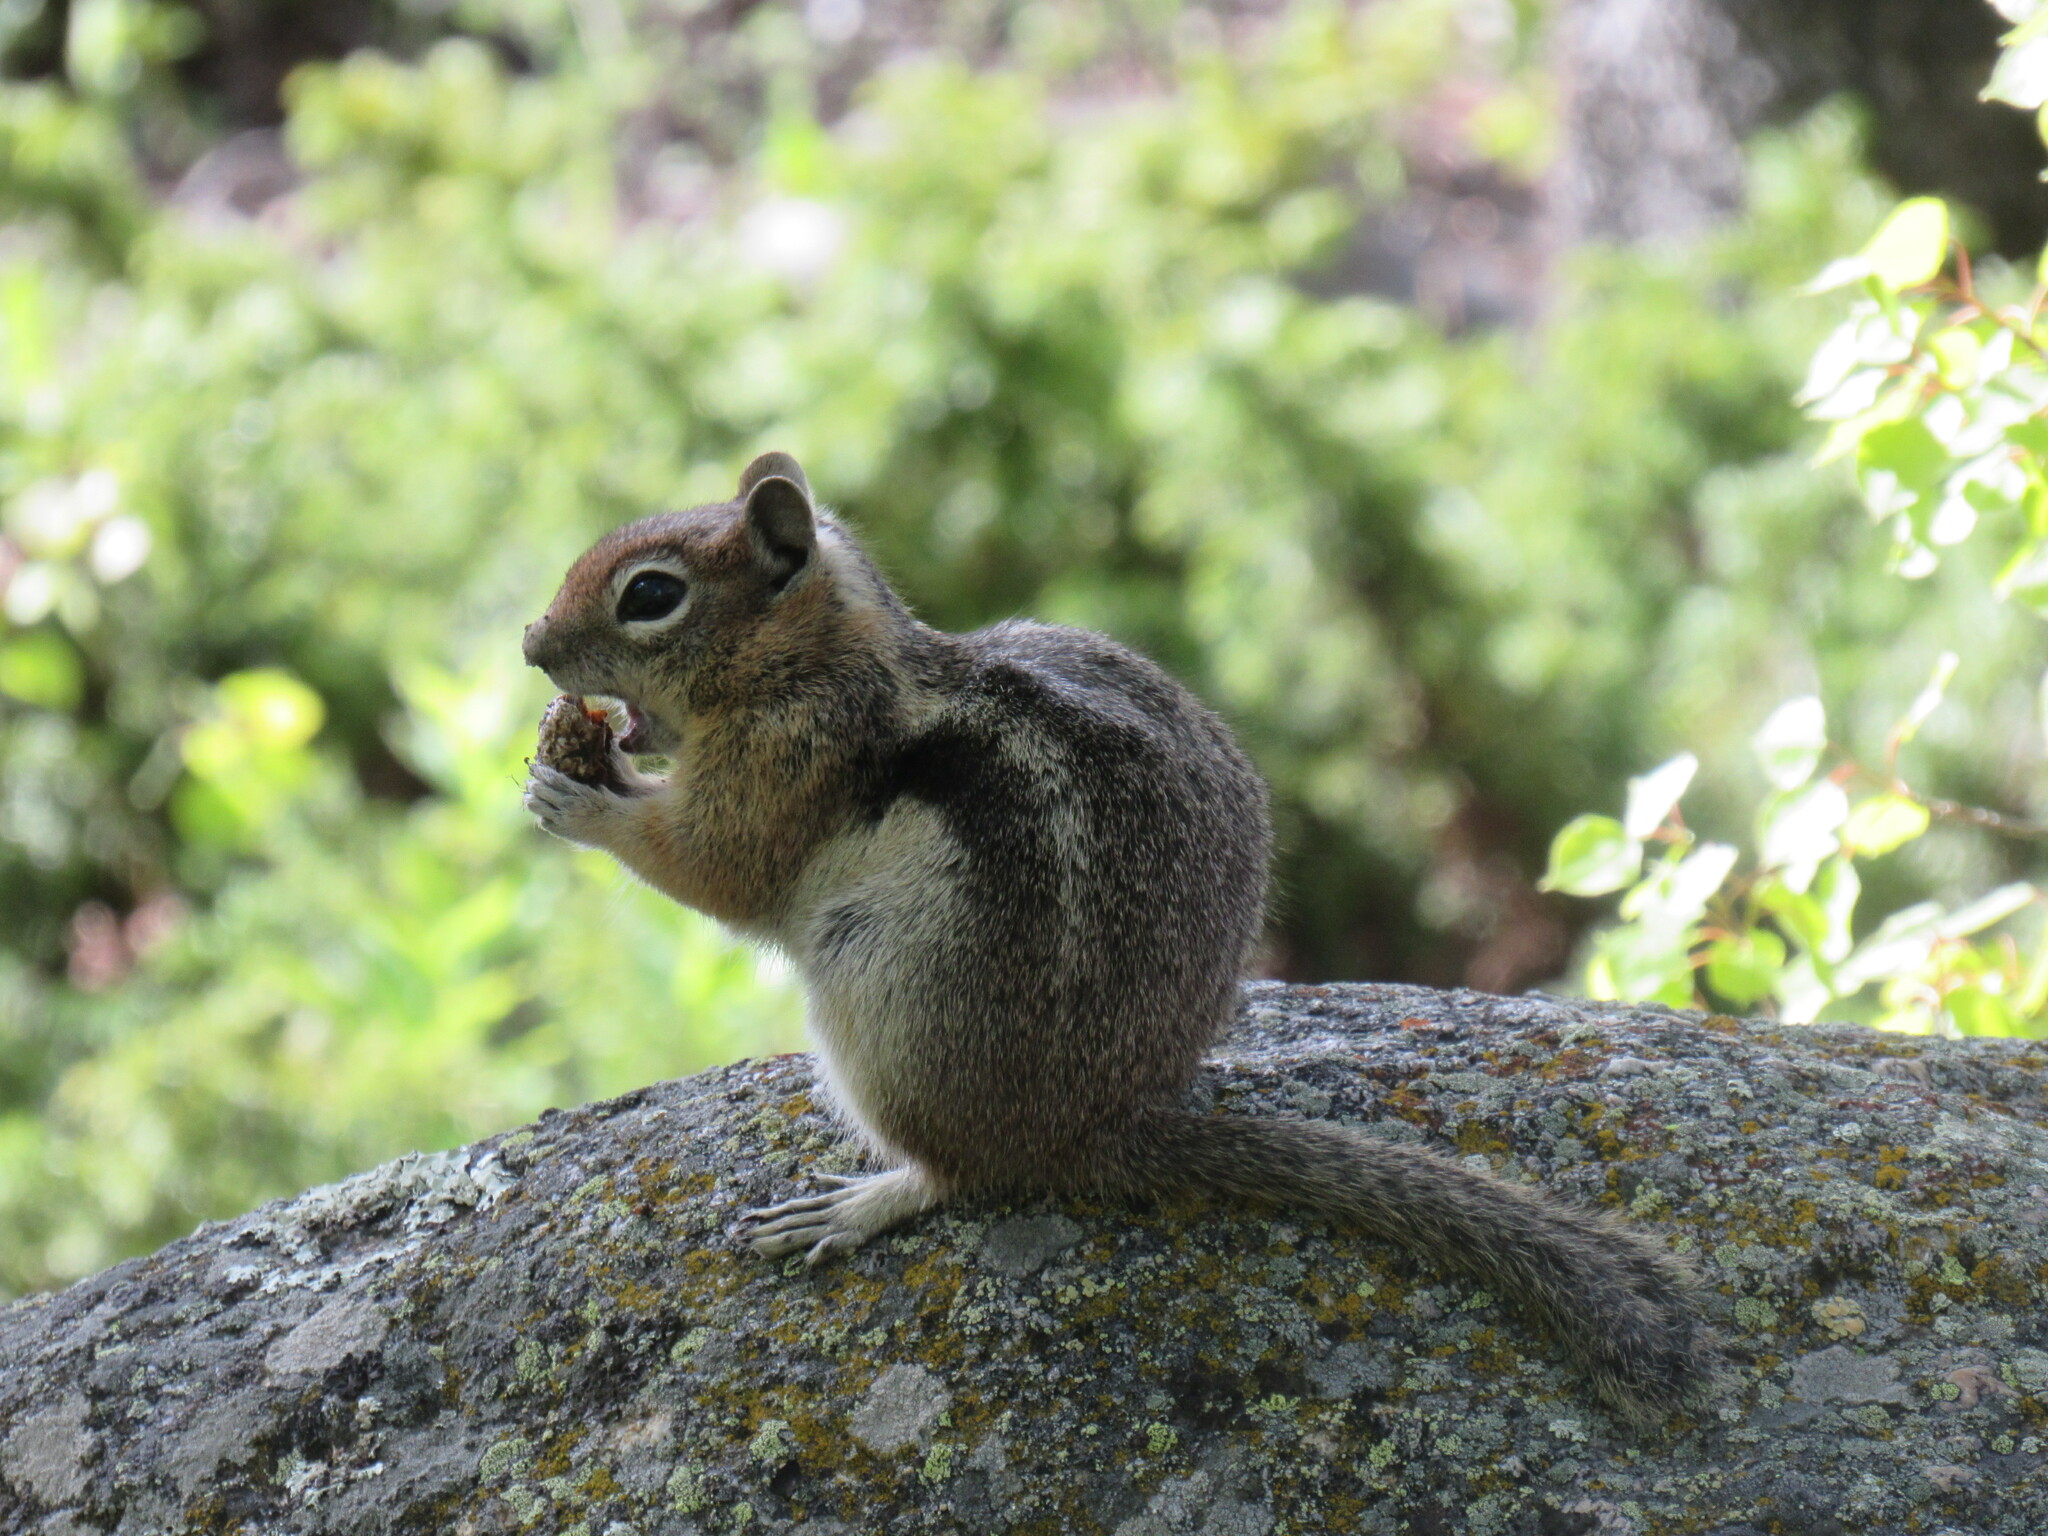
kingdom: Animalia
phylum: Chordata
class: Mammalia
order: Rodentia
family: Sciuridae
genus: Callospermophilus
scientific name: Callospermophilus lateralis
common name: Golden-mantled ground squirrel
